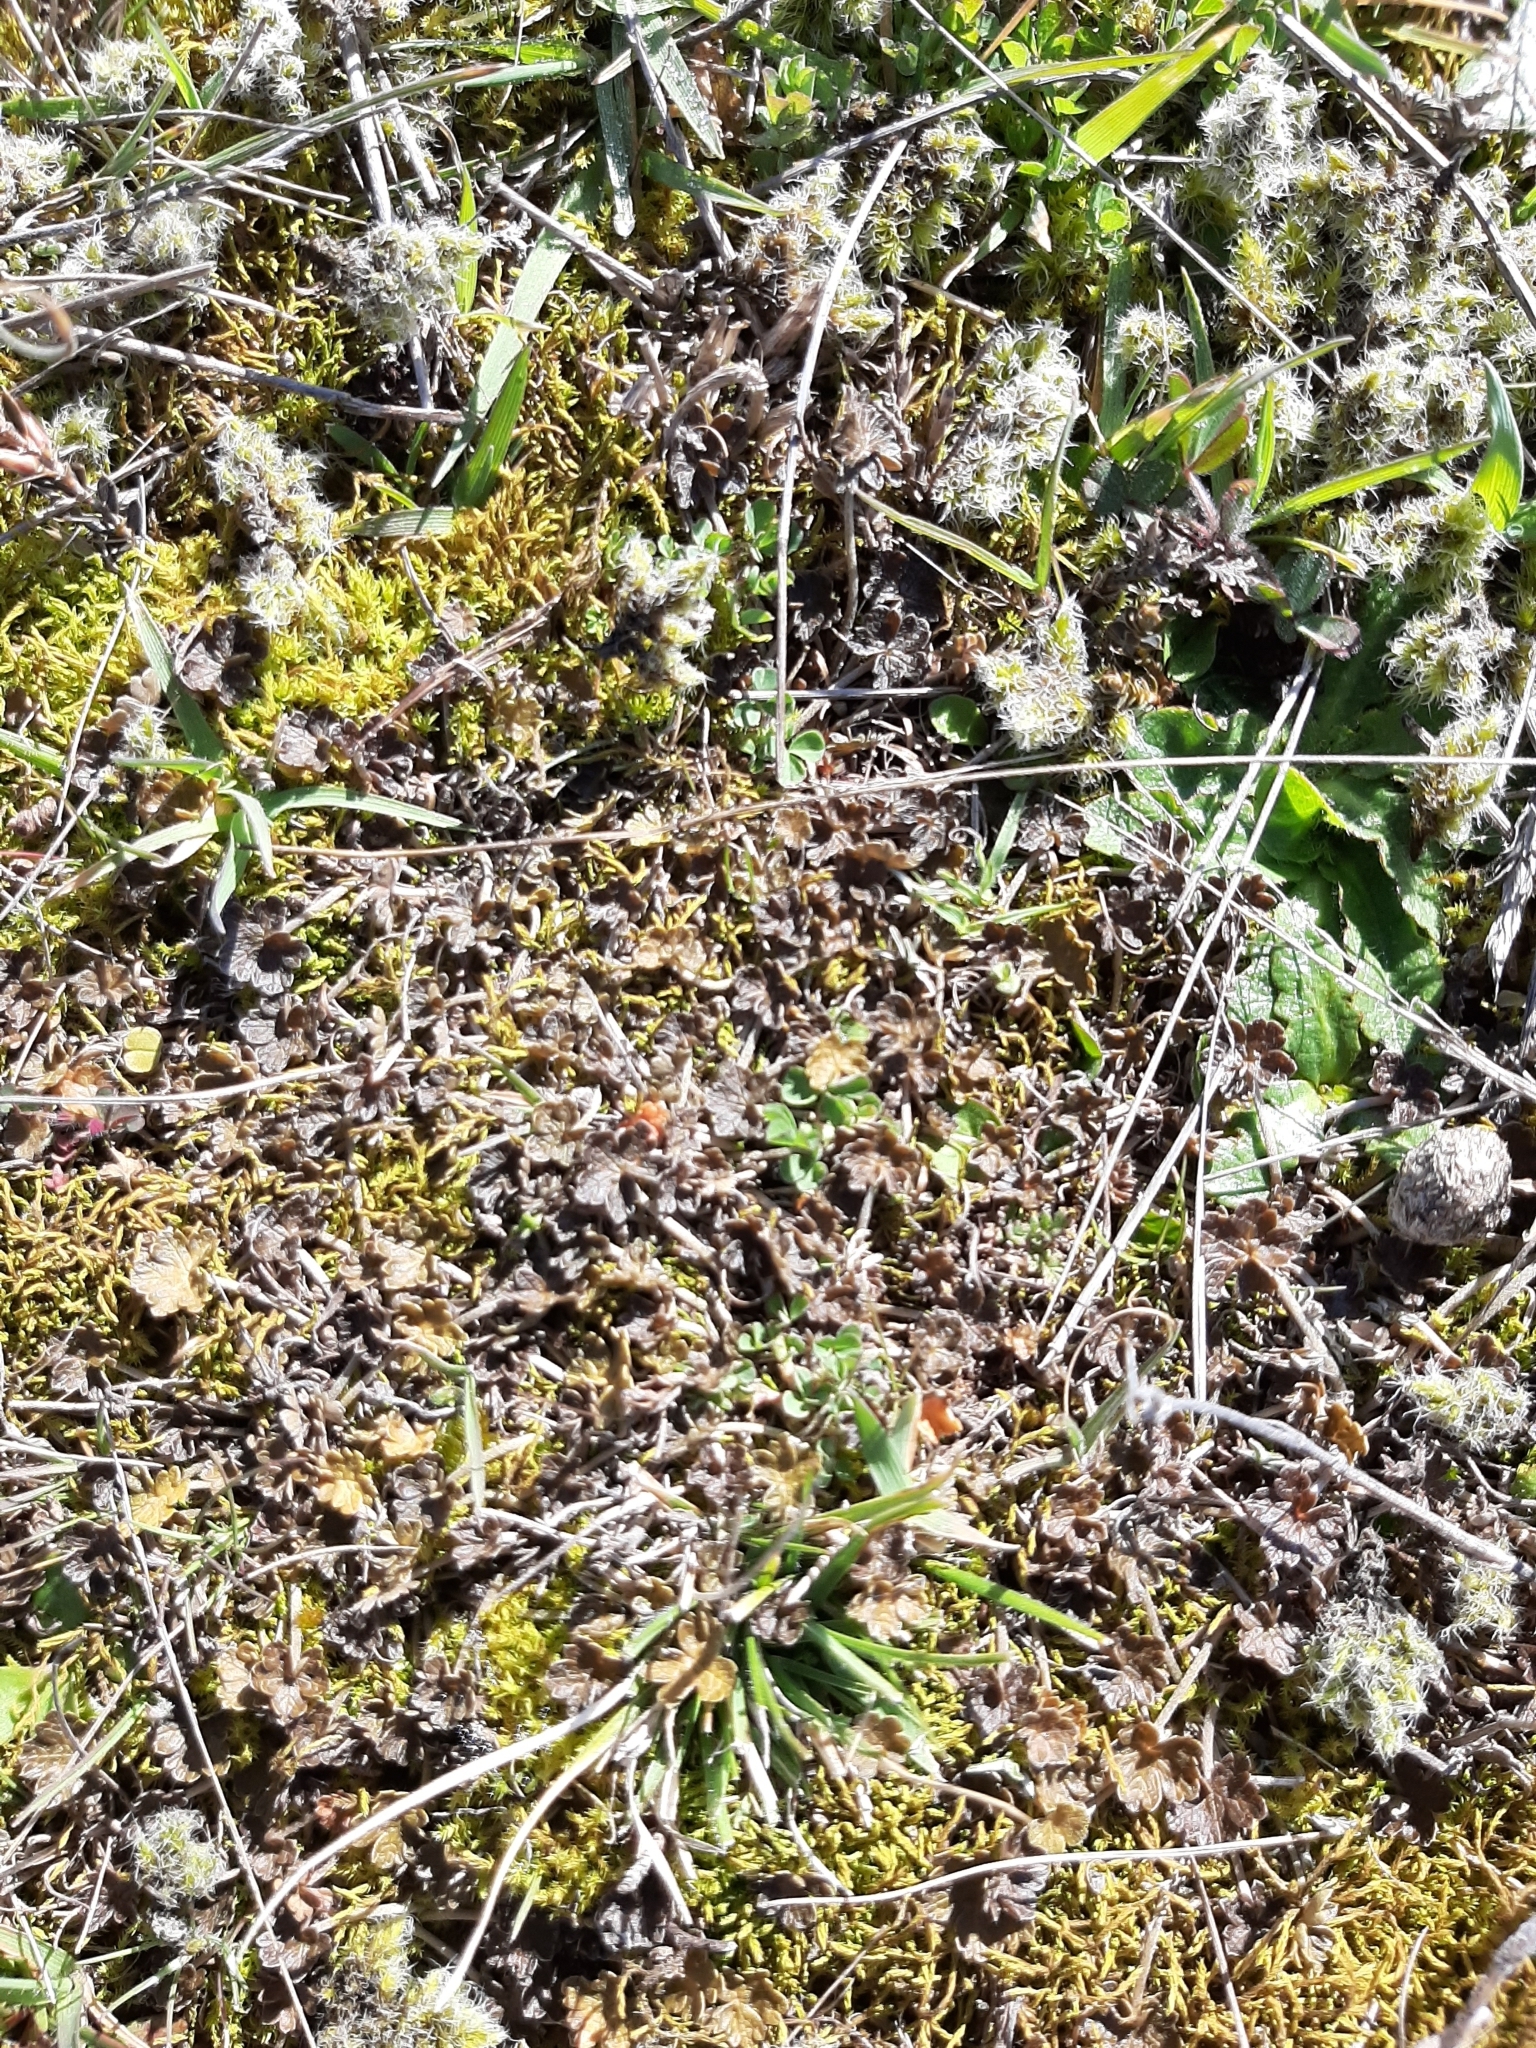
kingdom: Plantae
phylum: Tracheophyta
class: Magnoliopsida
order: Geraniales
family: Geraniaceae
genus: Geranium
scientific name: Geranium brevicaule
